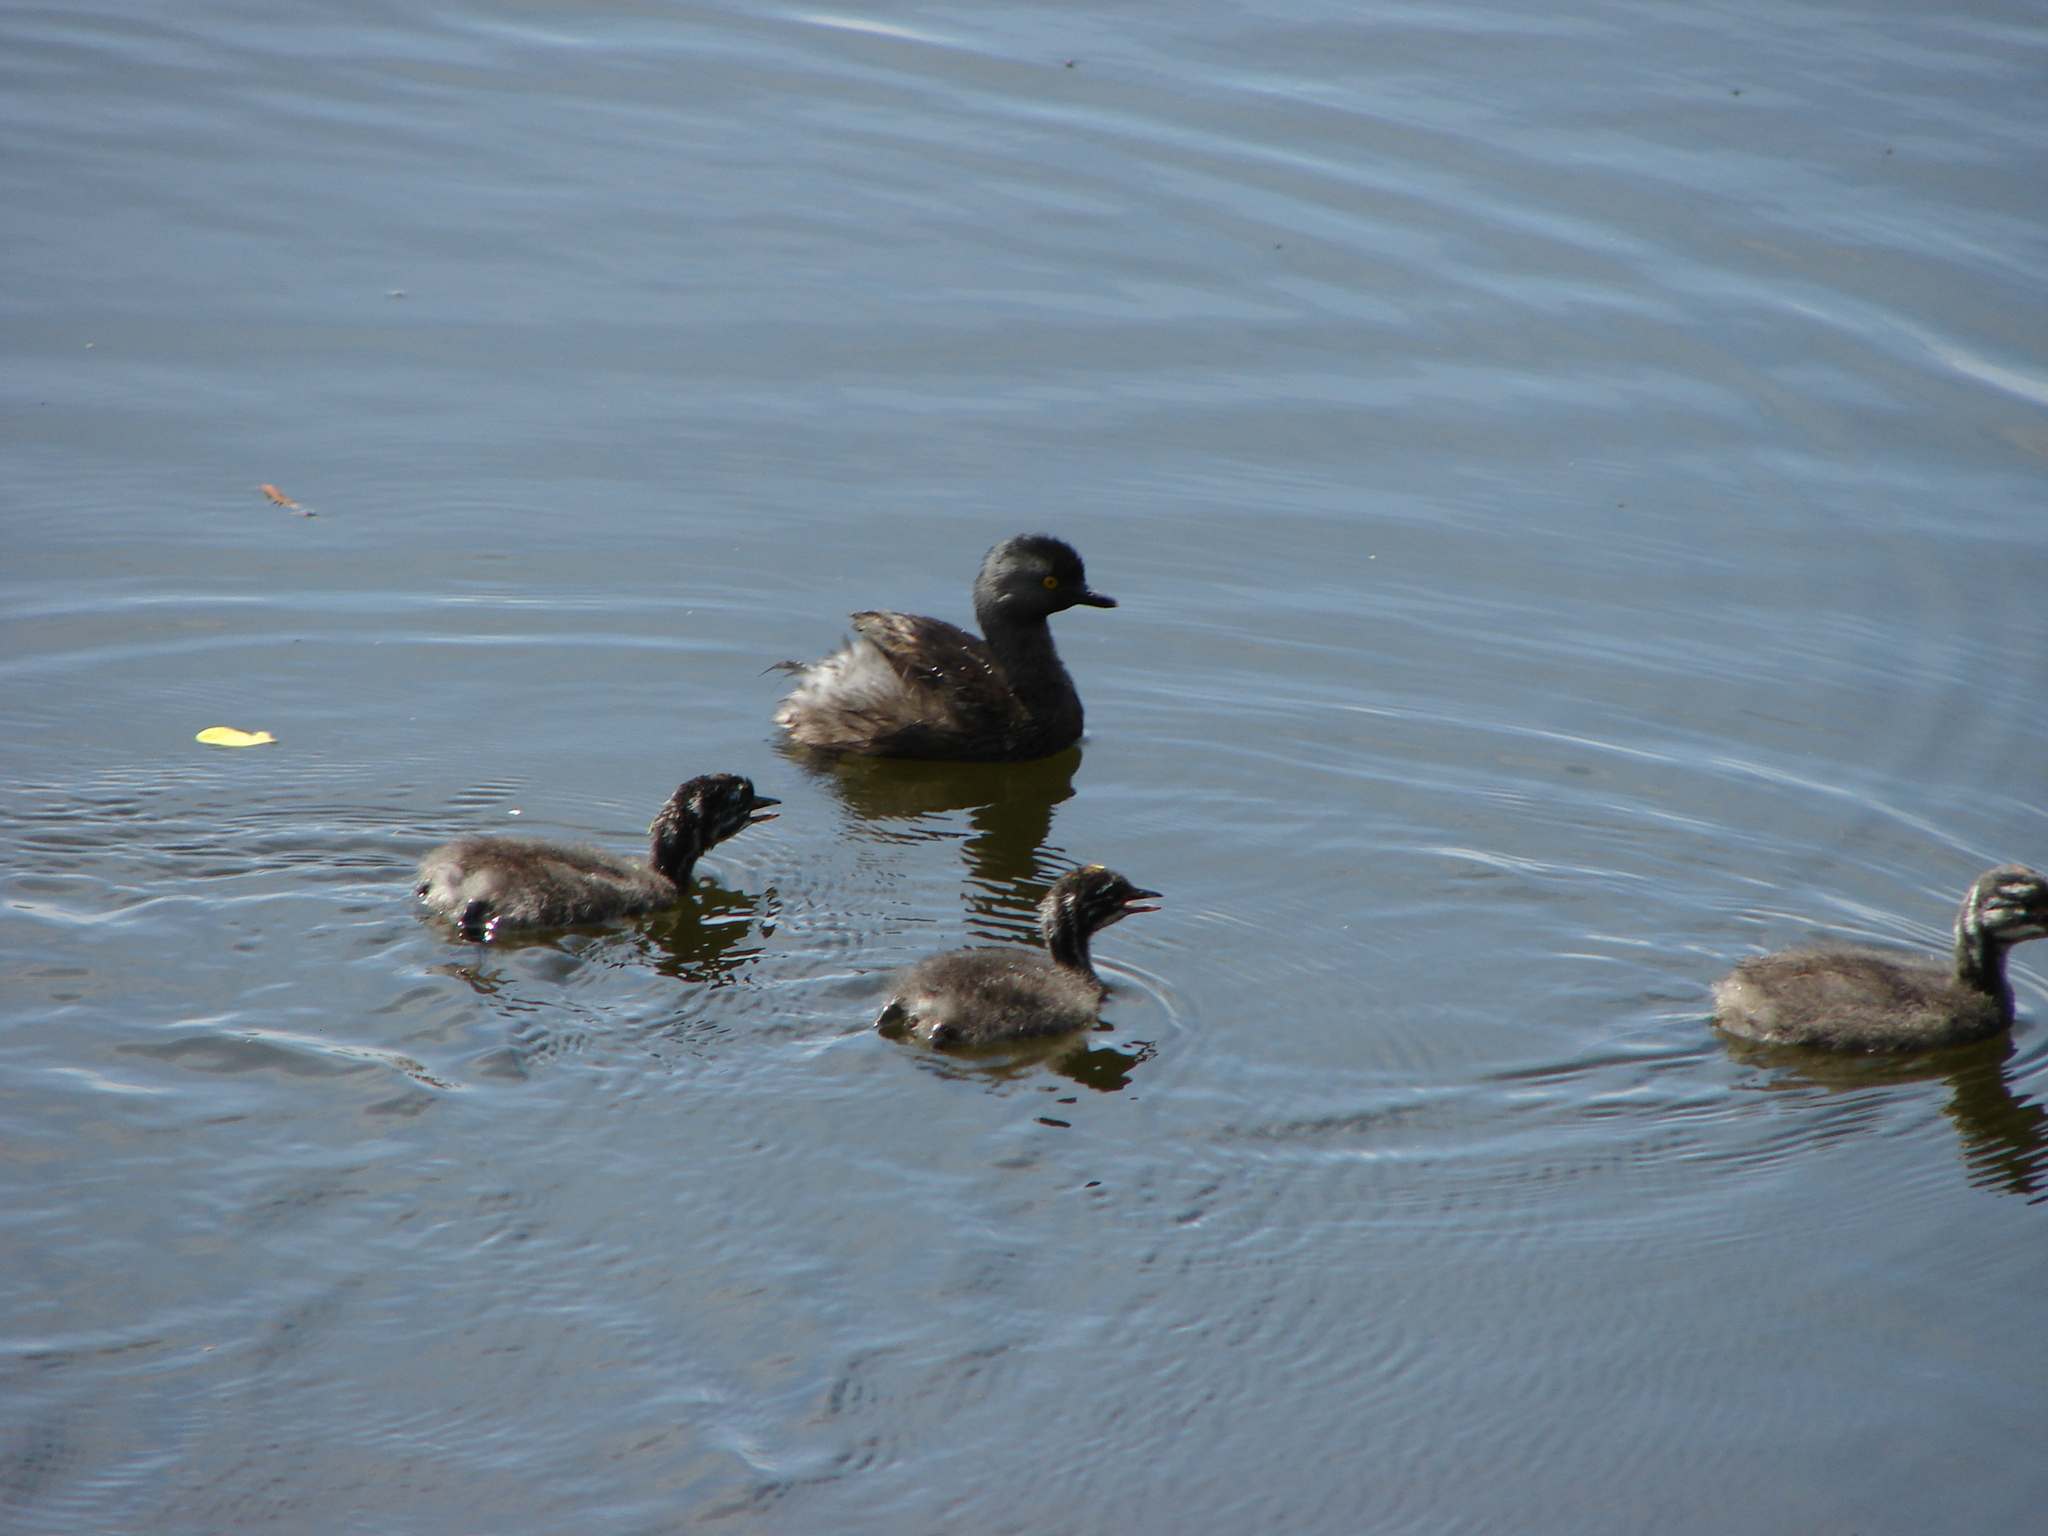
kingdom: Animalia
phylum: Chordata
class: Aves
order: Podicipediformes
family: Podicipedidae
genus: Tachybaptus
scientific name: Tachybaptus dominicus
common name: Least grebe
